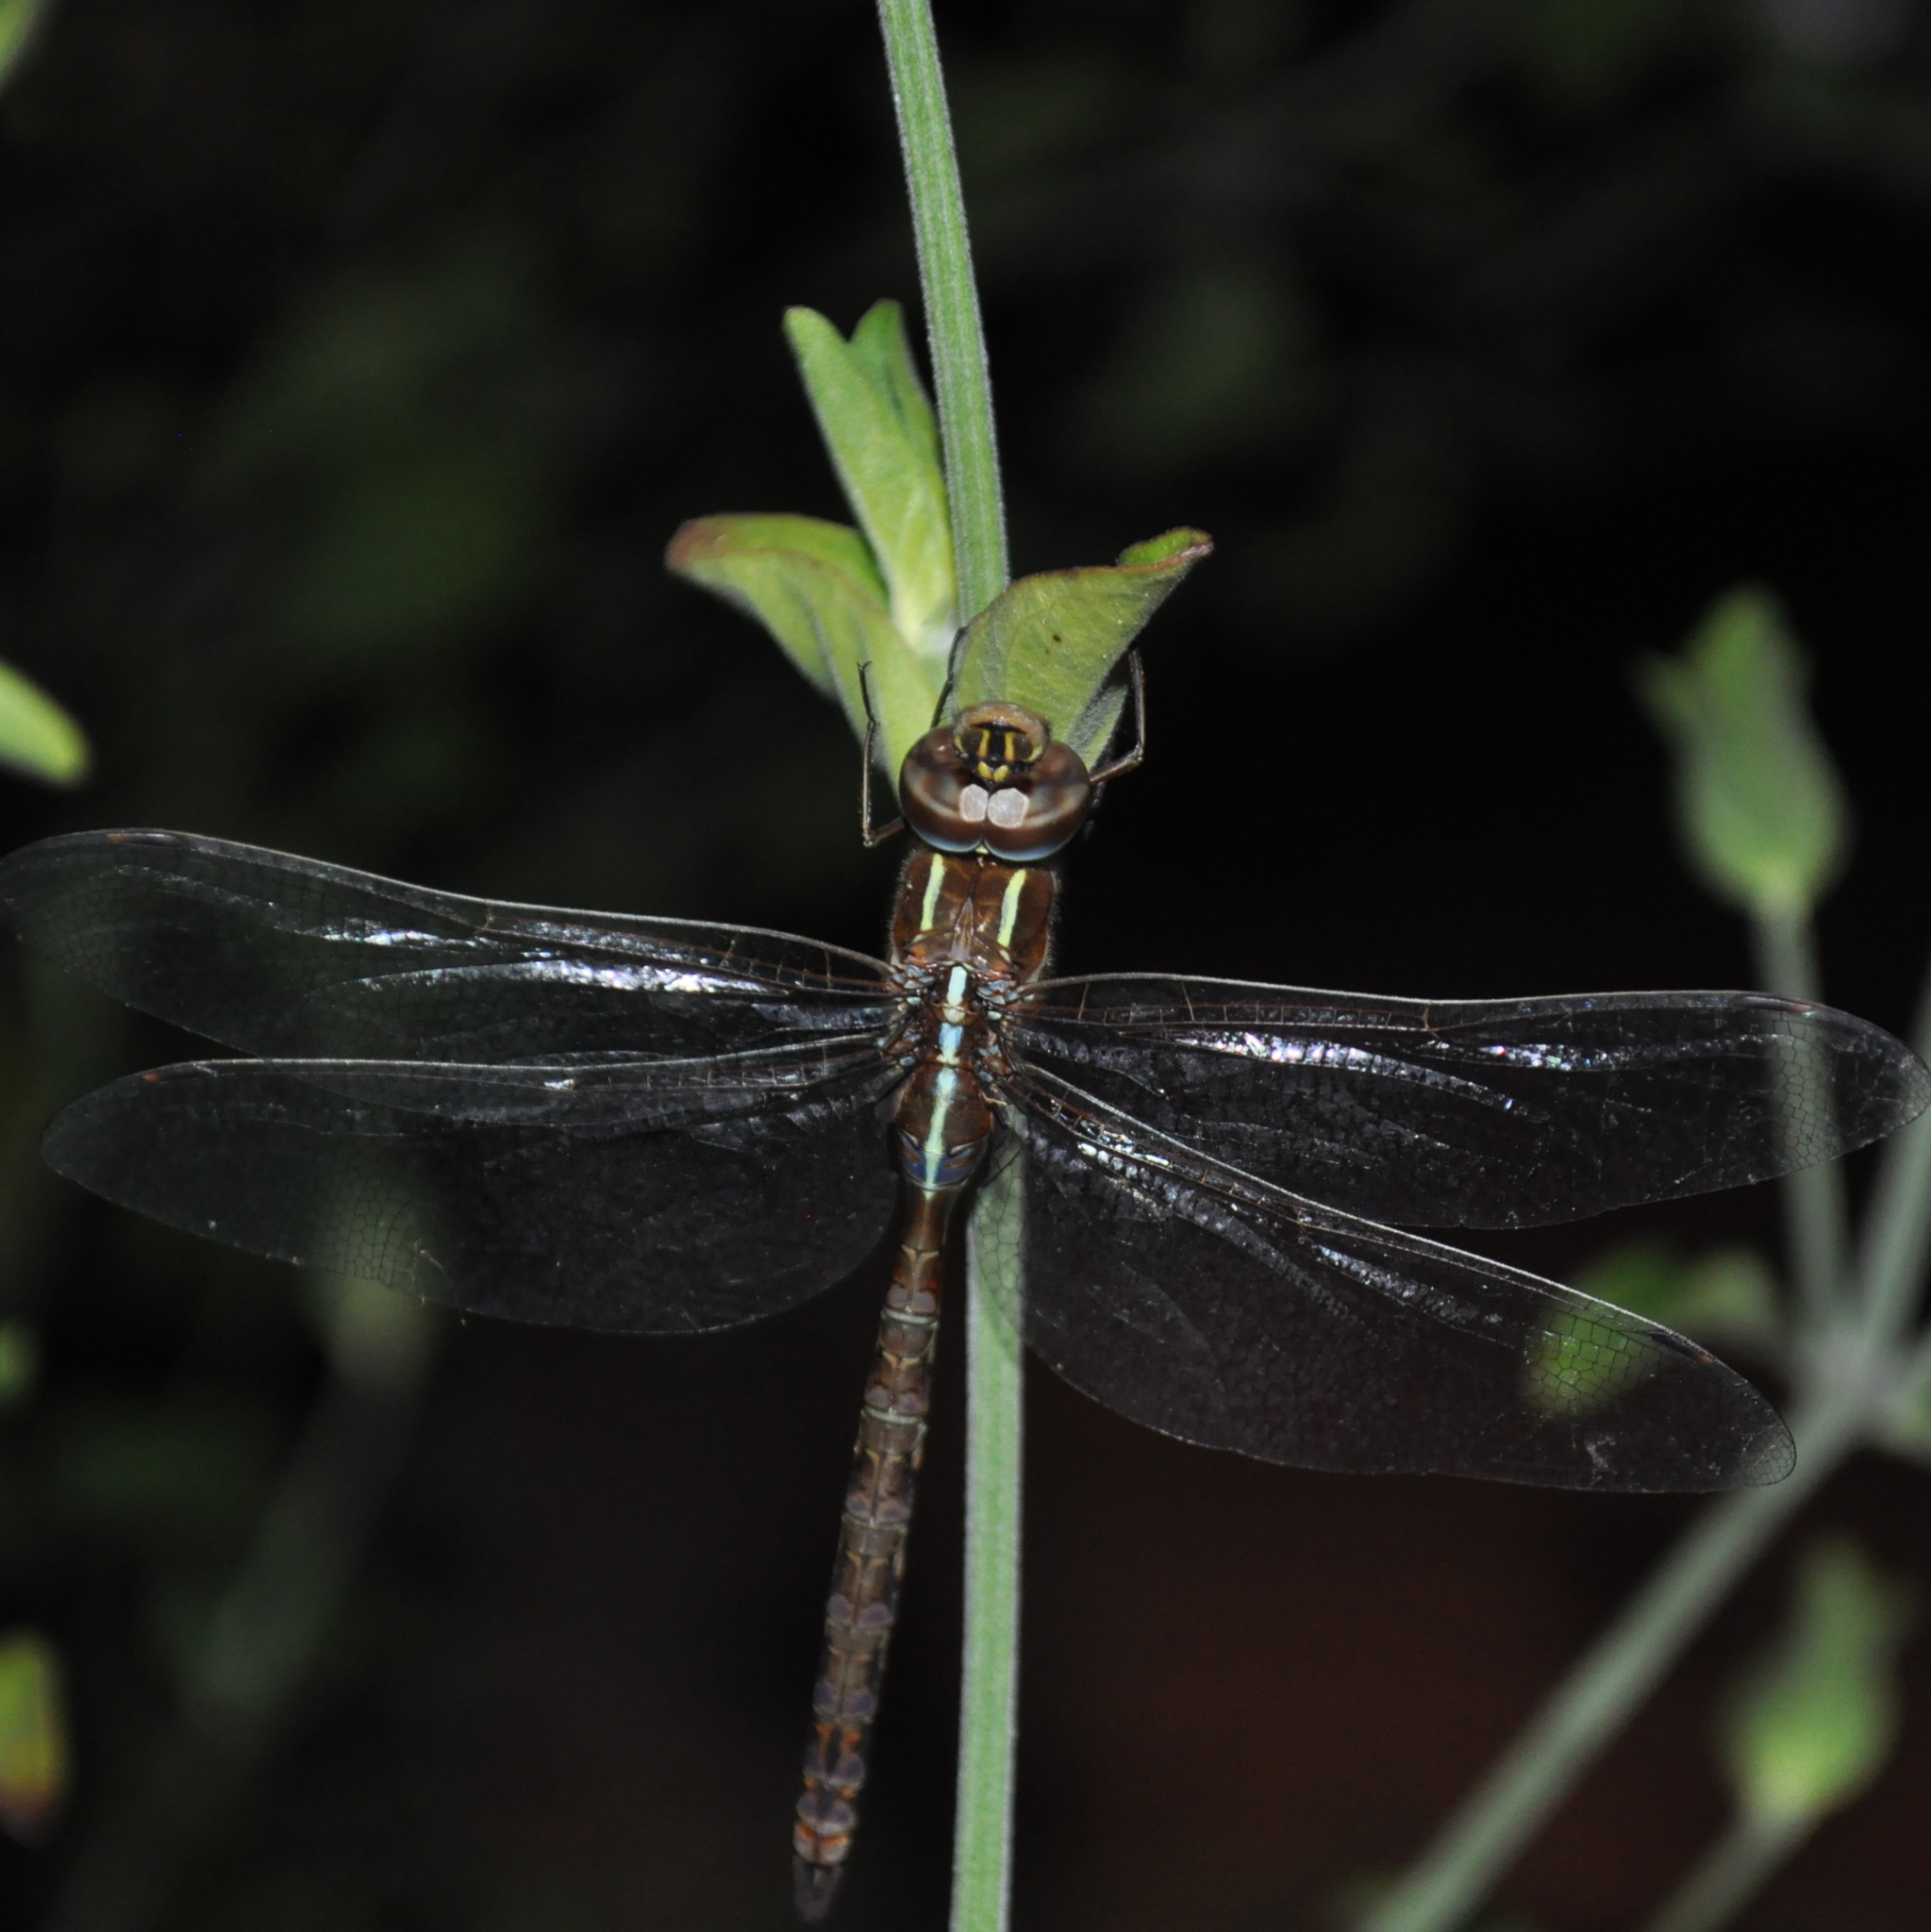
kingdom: Animalia
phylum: Arthropoda
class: Insecta
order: Odonata
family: Aeshnidae
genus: Rhionaeschna
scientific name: Rhionaeschna confusa
